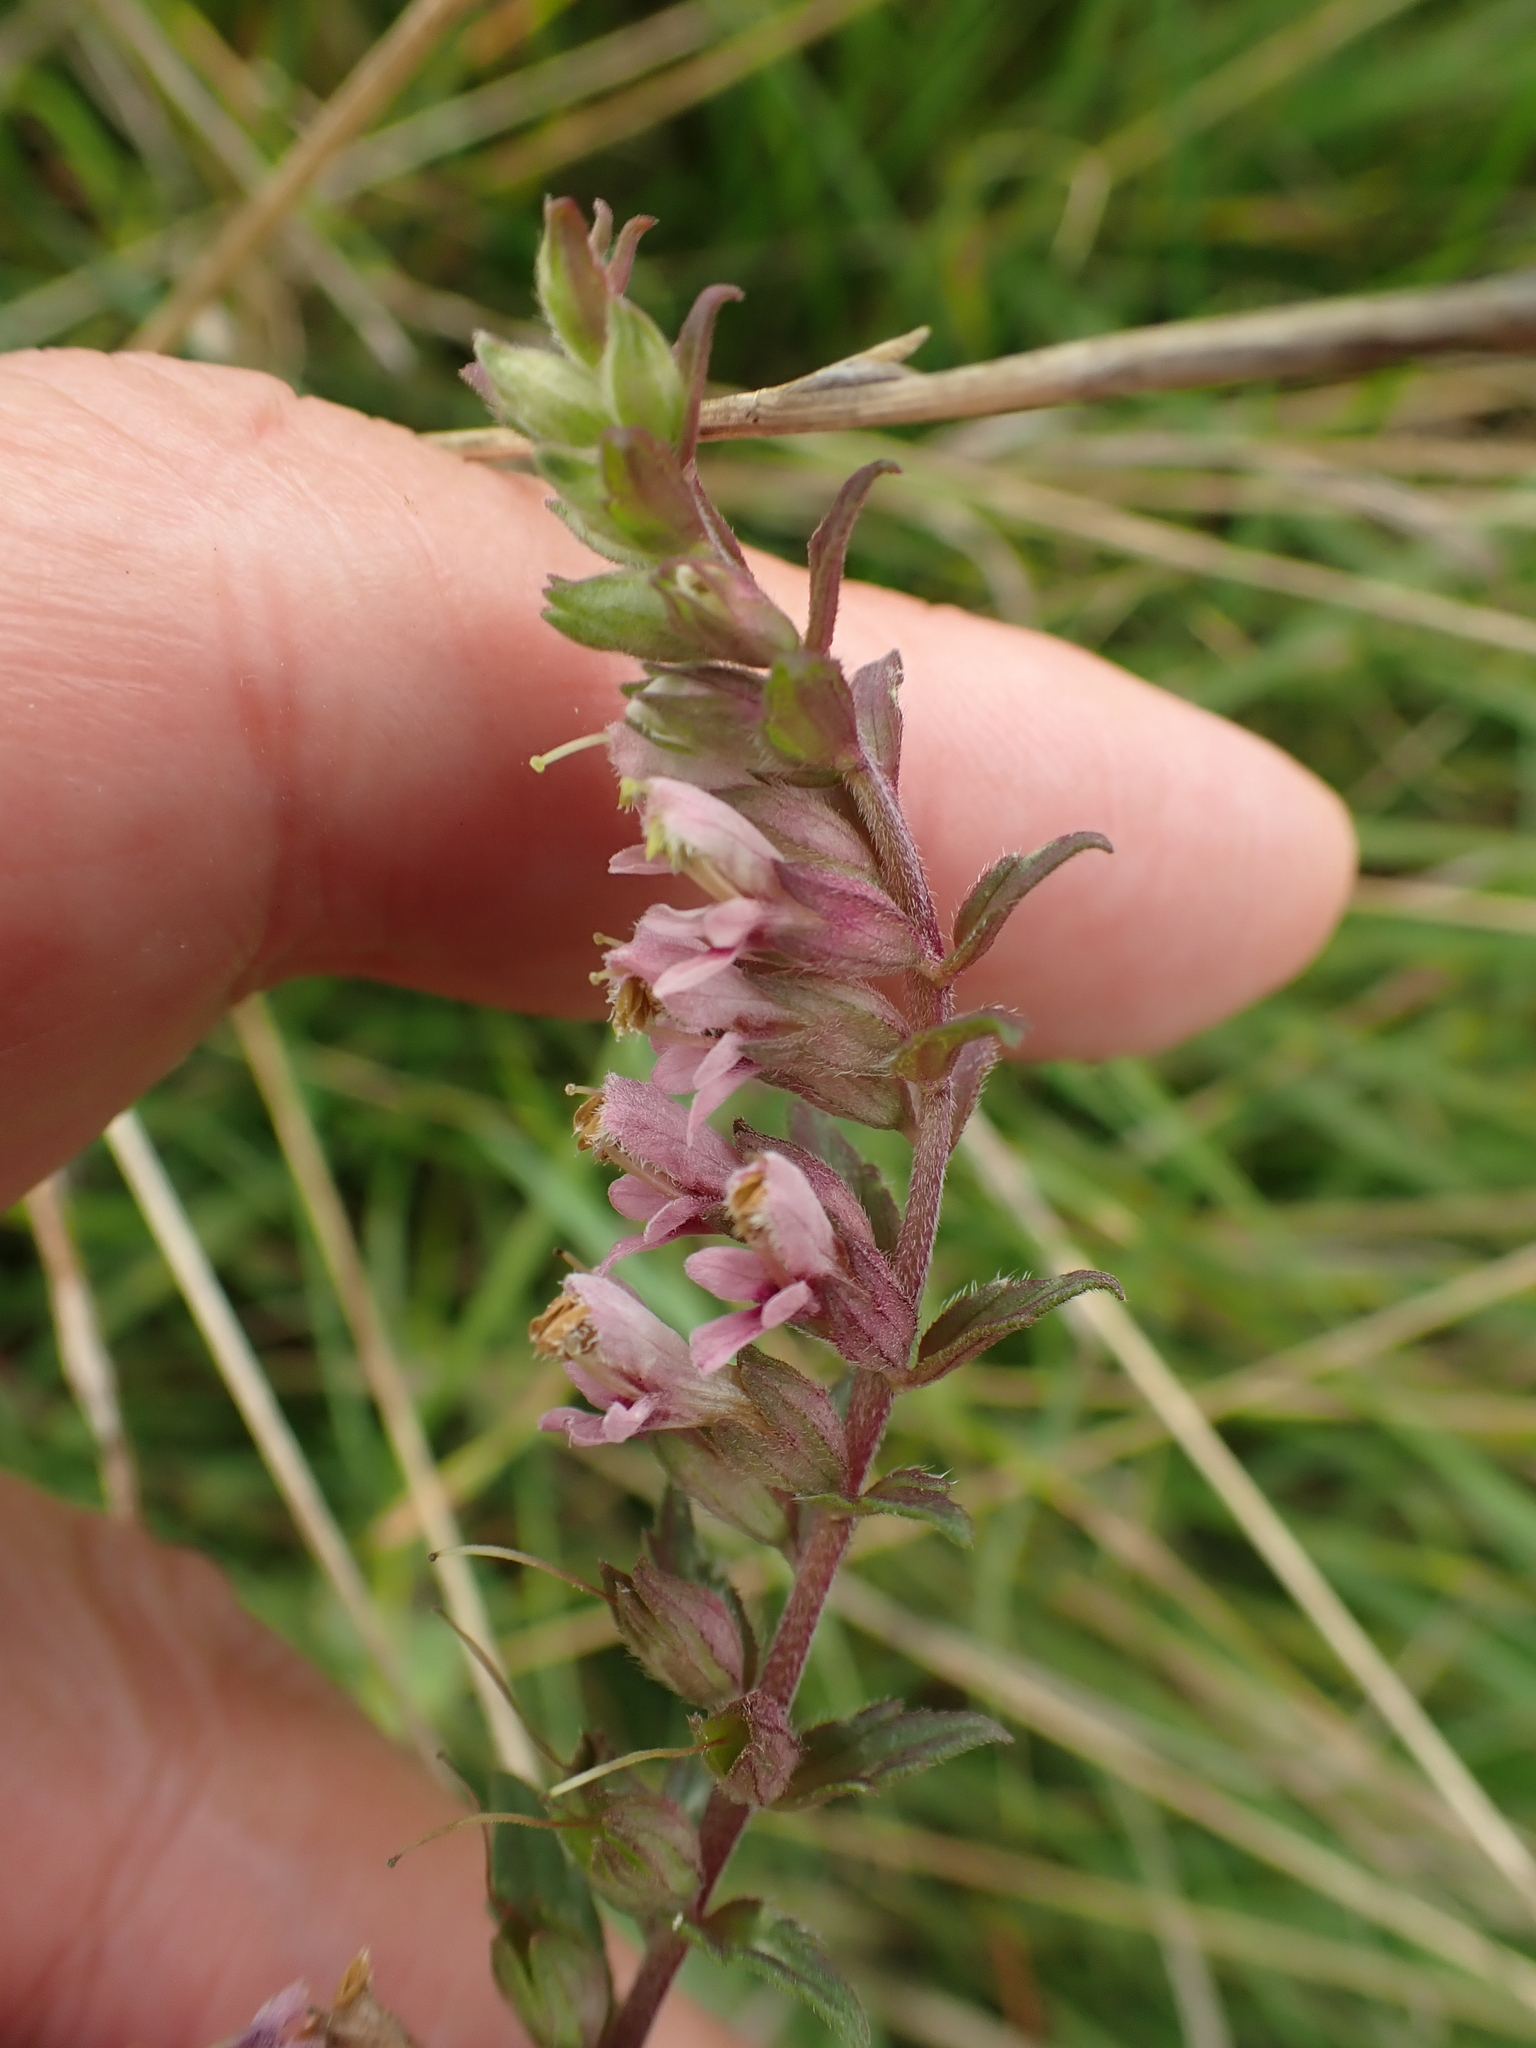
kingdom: Plantae
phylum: Tracheophyta
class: Magnoliopsida
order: Lamiales
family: Orobanchaceae
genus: Odontites
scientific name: Odontites vulgaris
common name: Broomrape
